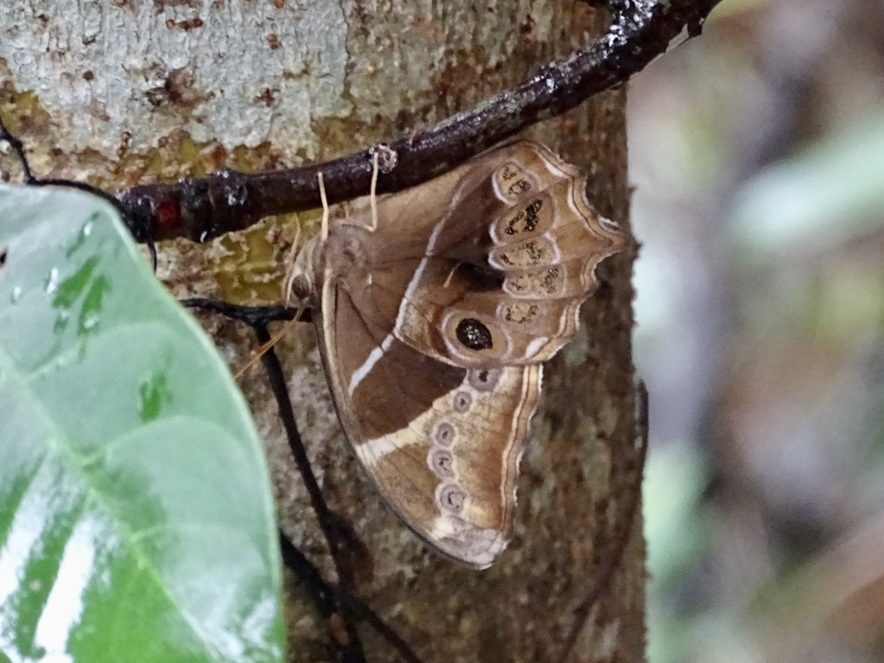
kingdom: Animalia
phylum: Arthropoda
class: Insecta
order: Lepidoptera
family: Nymphalidae
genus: Lethe
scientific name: Lethe europa
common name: Bamboo treebrown
